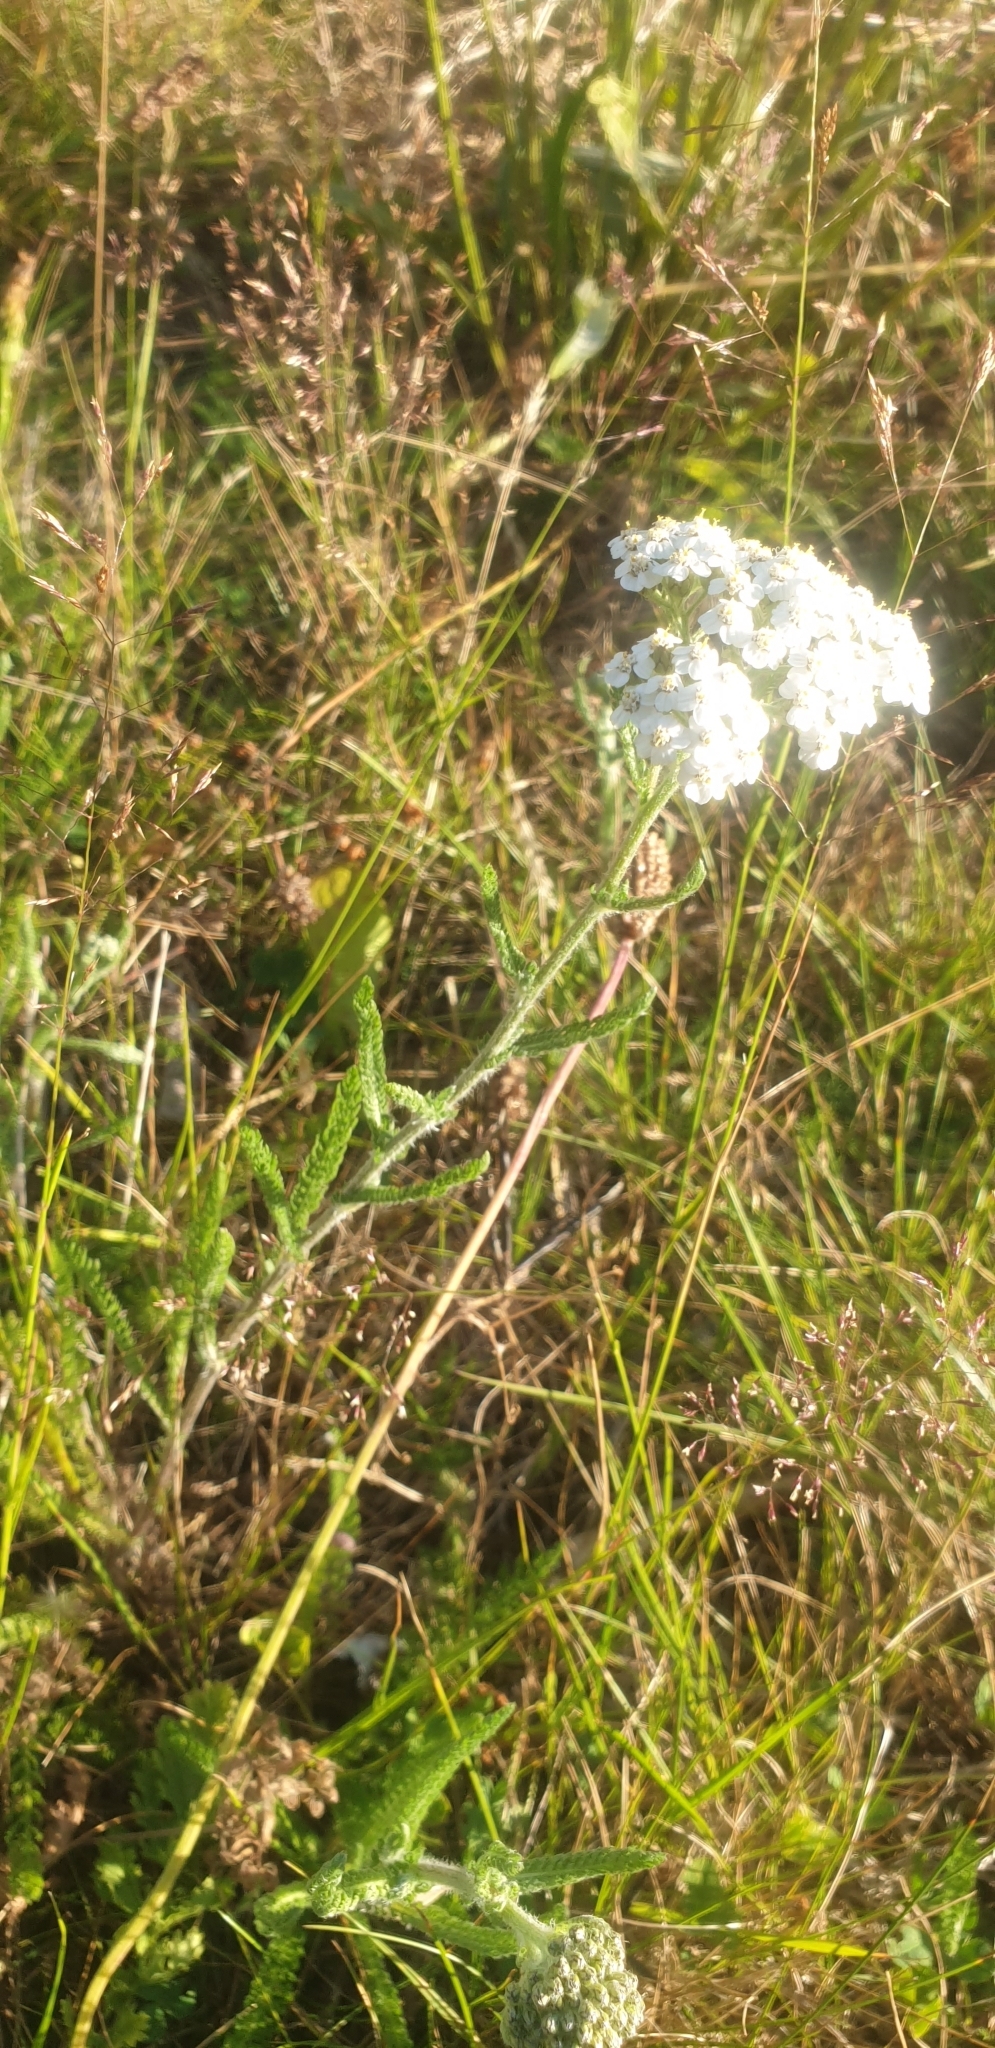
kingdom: Plantae
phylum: Tracheophyta
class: Magnoliopsida
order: Asterales
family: Asteraceae
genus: Achillea
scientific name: Achillea millefolium
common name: Yarrow
